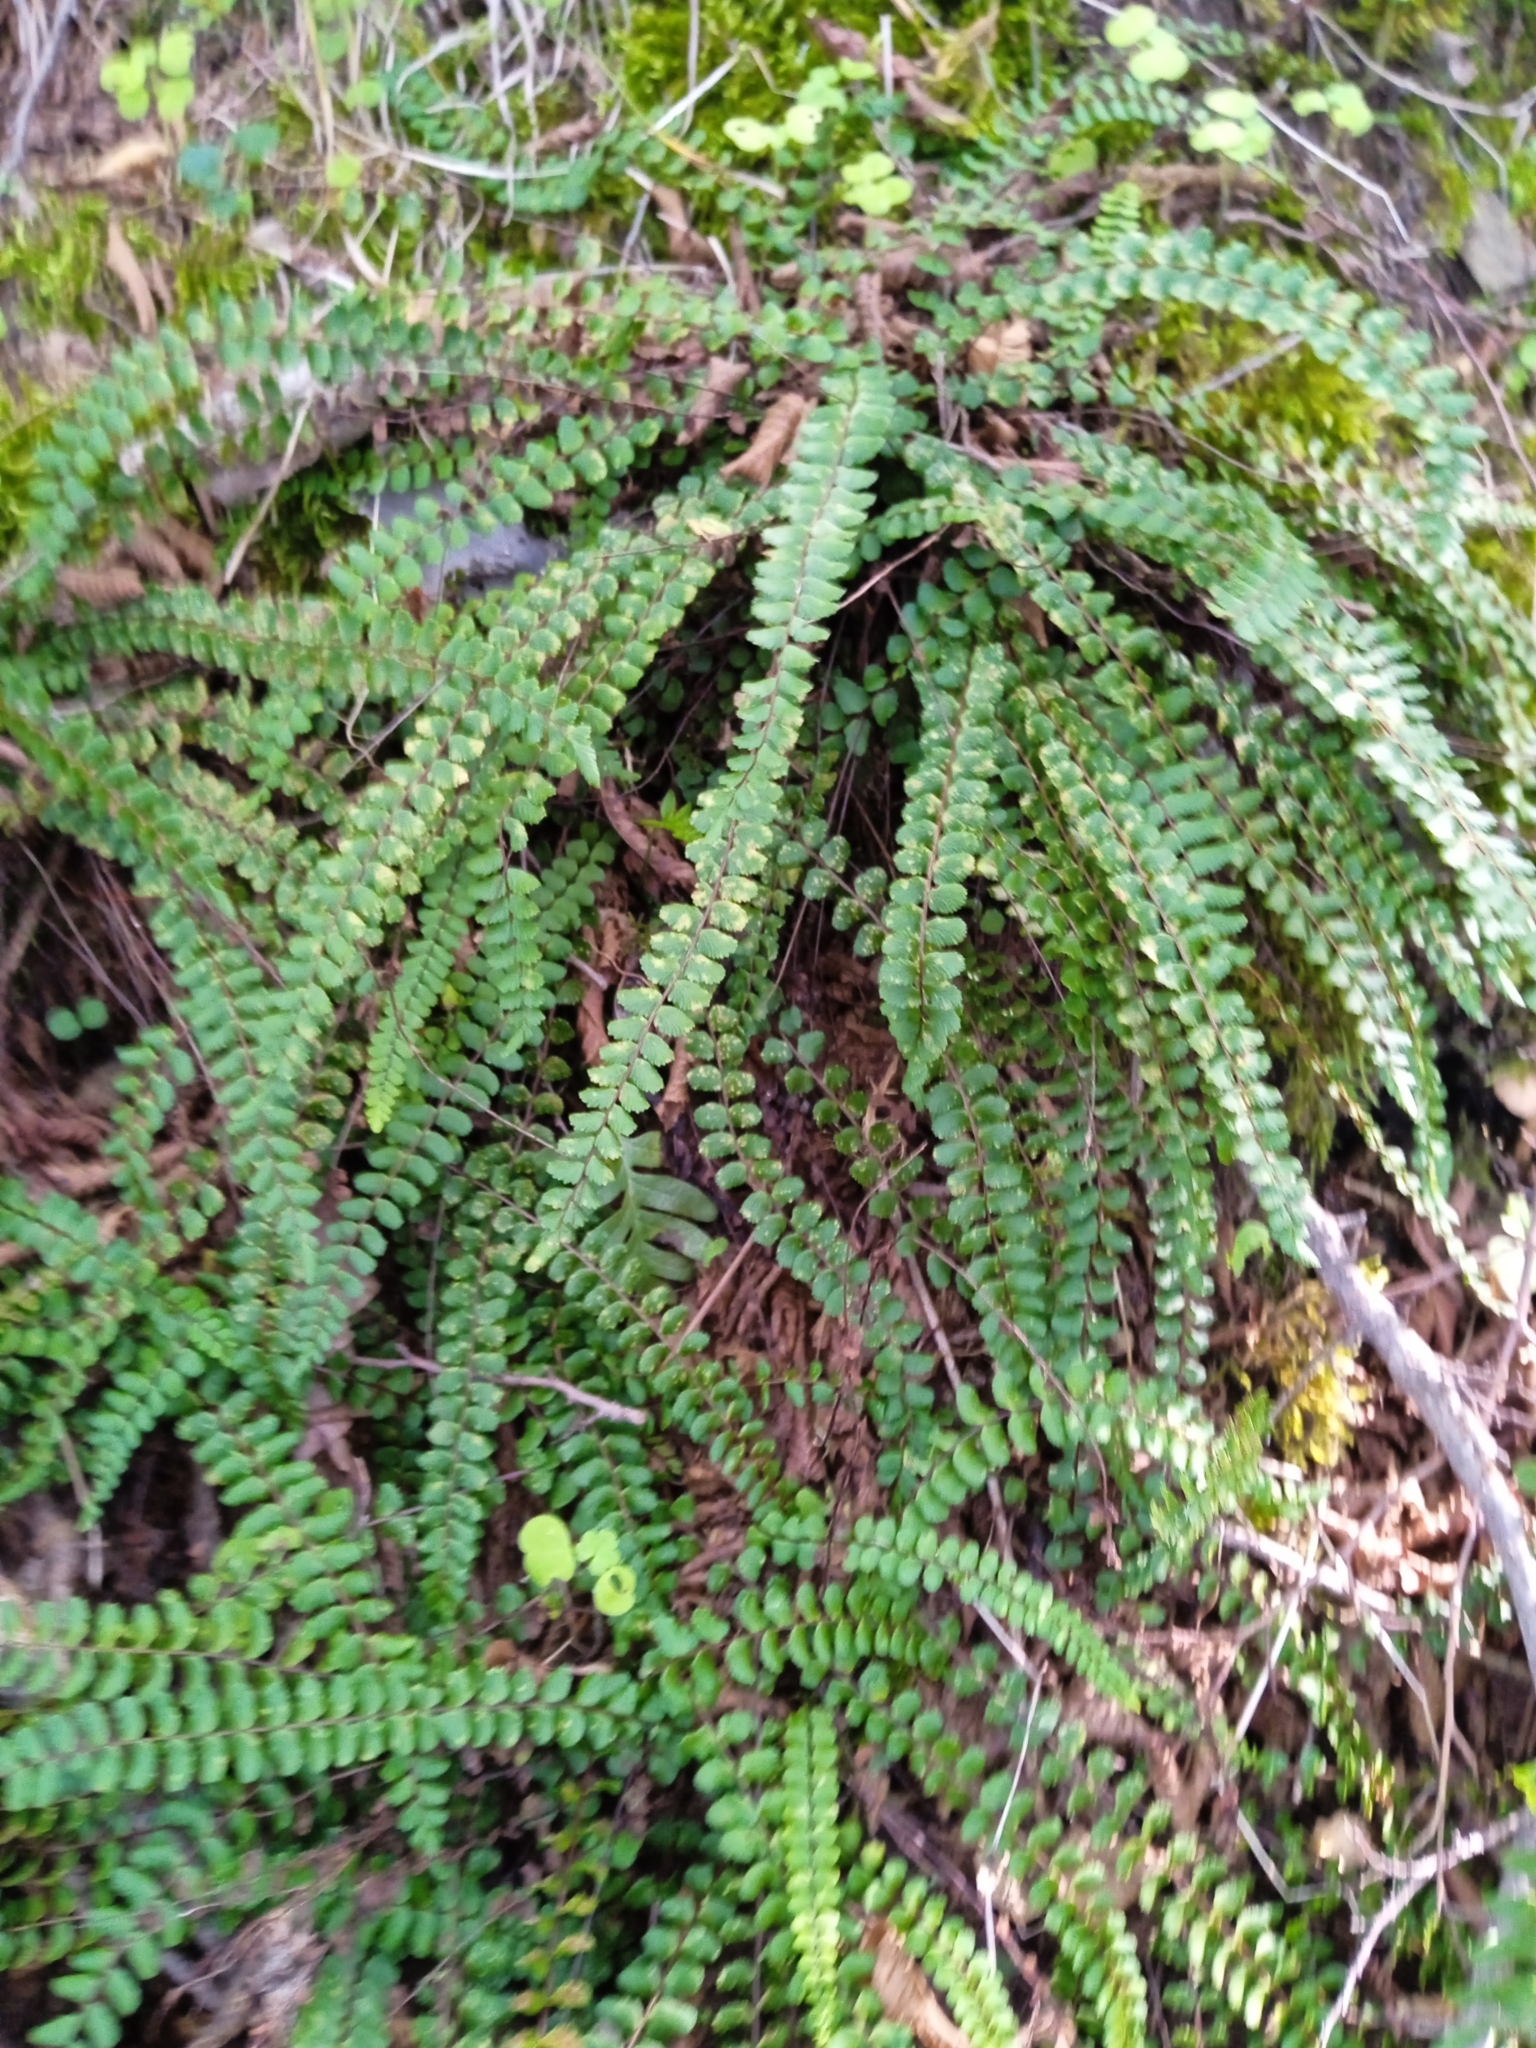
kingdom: Plantae
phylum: Tracheophyta
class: Polypodiopsida
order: Polypodiales
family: Aspleniaceae
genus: Asplenium
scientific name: Asplenium trichomanes
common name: Maidenhair spleenwort
